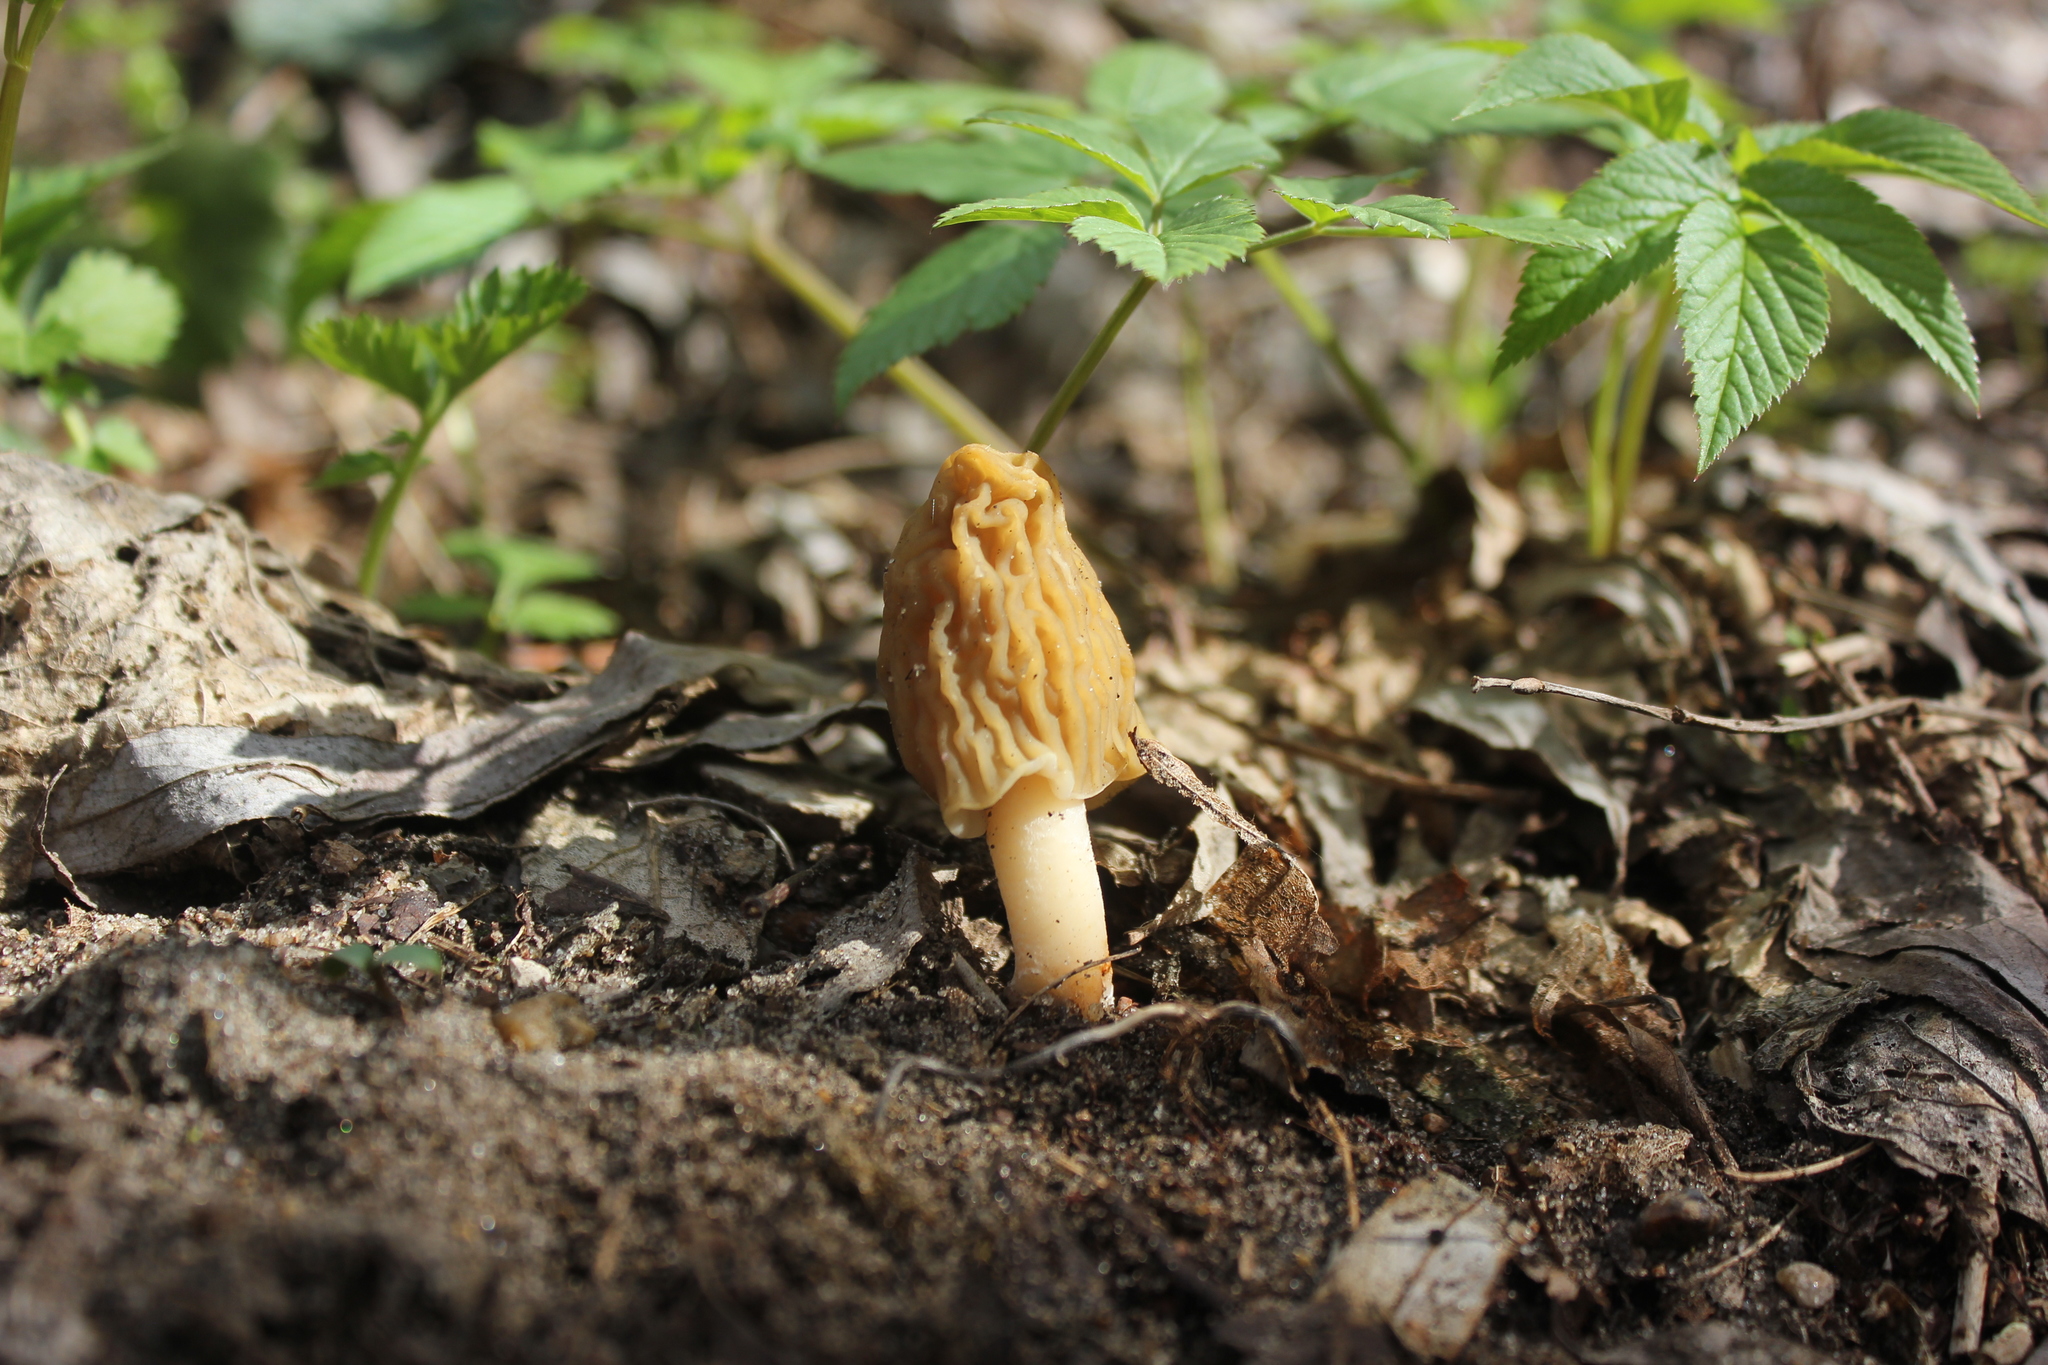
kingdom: Fungi
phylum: Ascomycota
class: Pezizomycetes
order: Pezizales
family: Morchellaceae
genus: Verpa
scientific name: Verpa bohemica
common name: Wrinkled thimble morel
